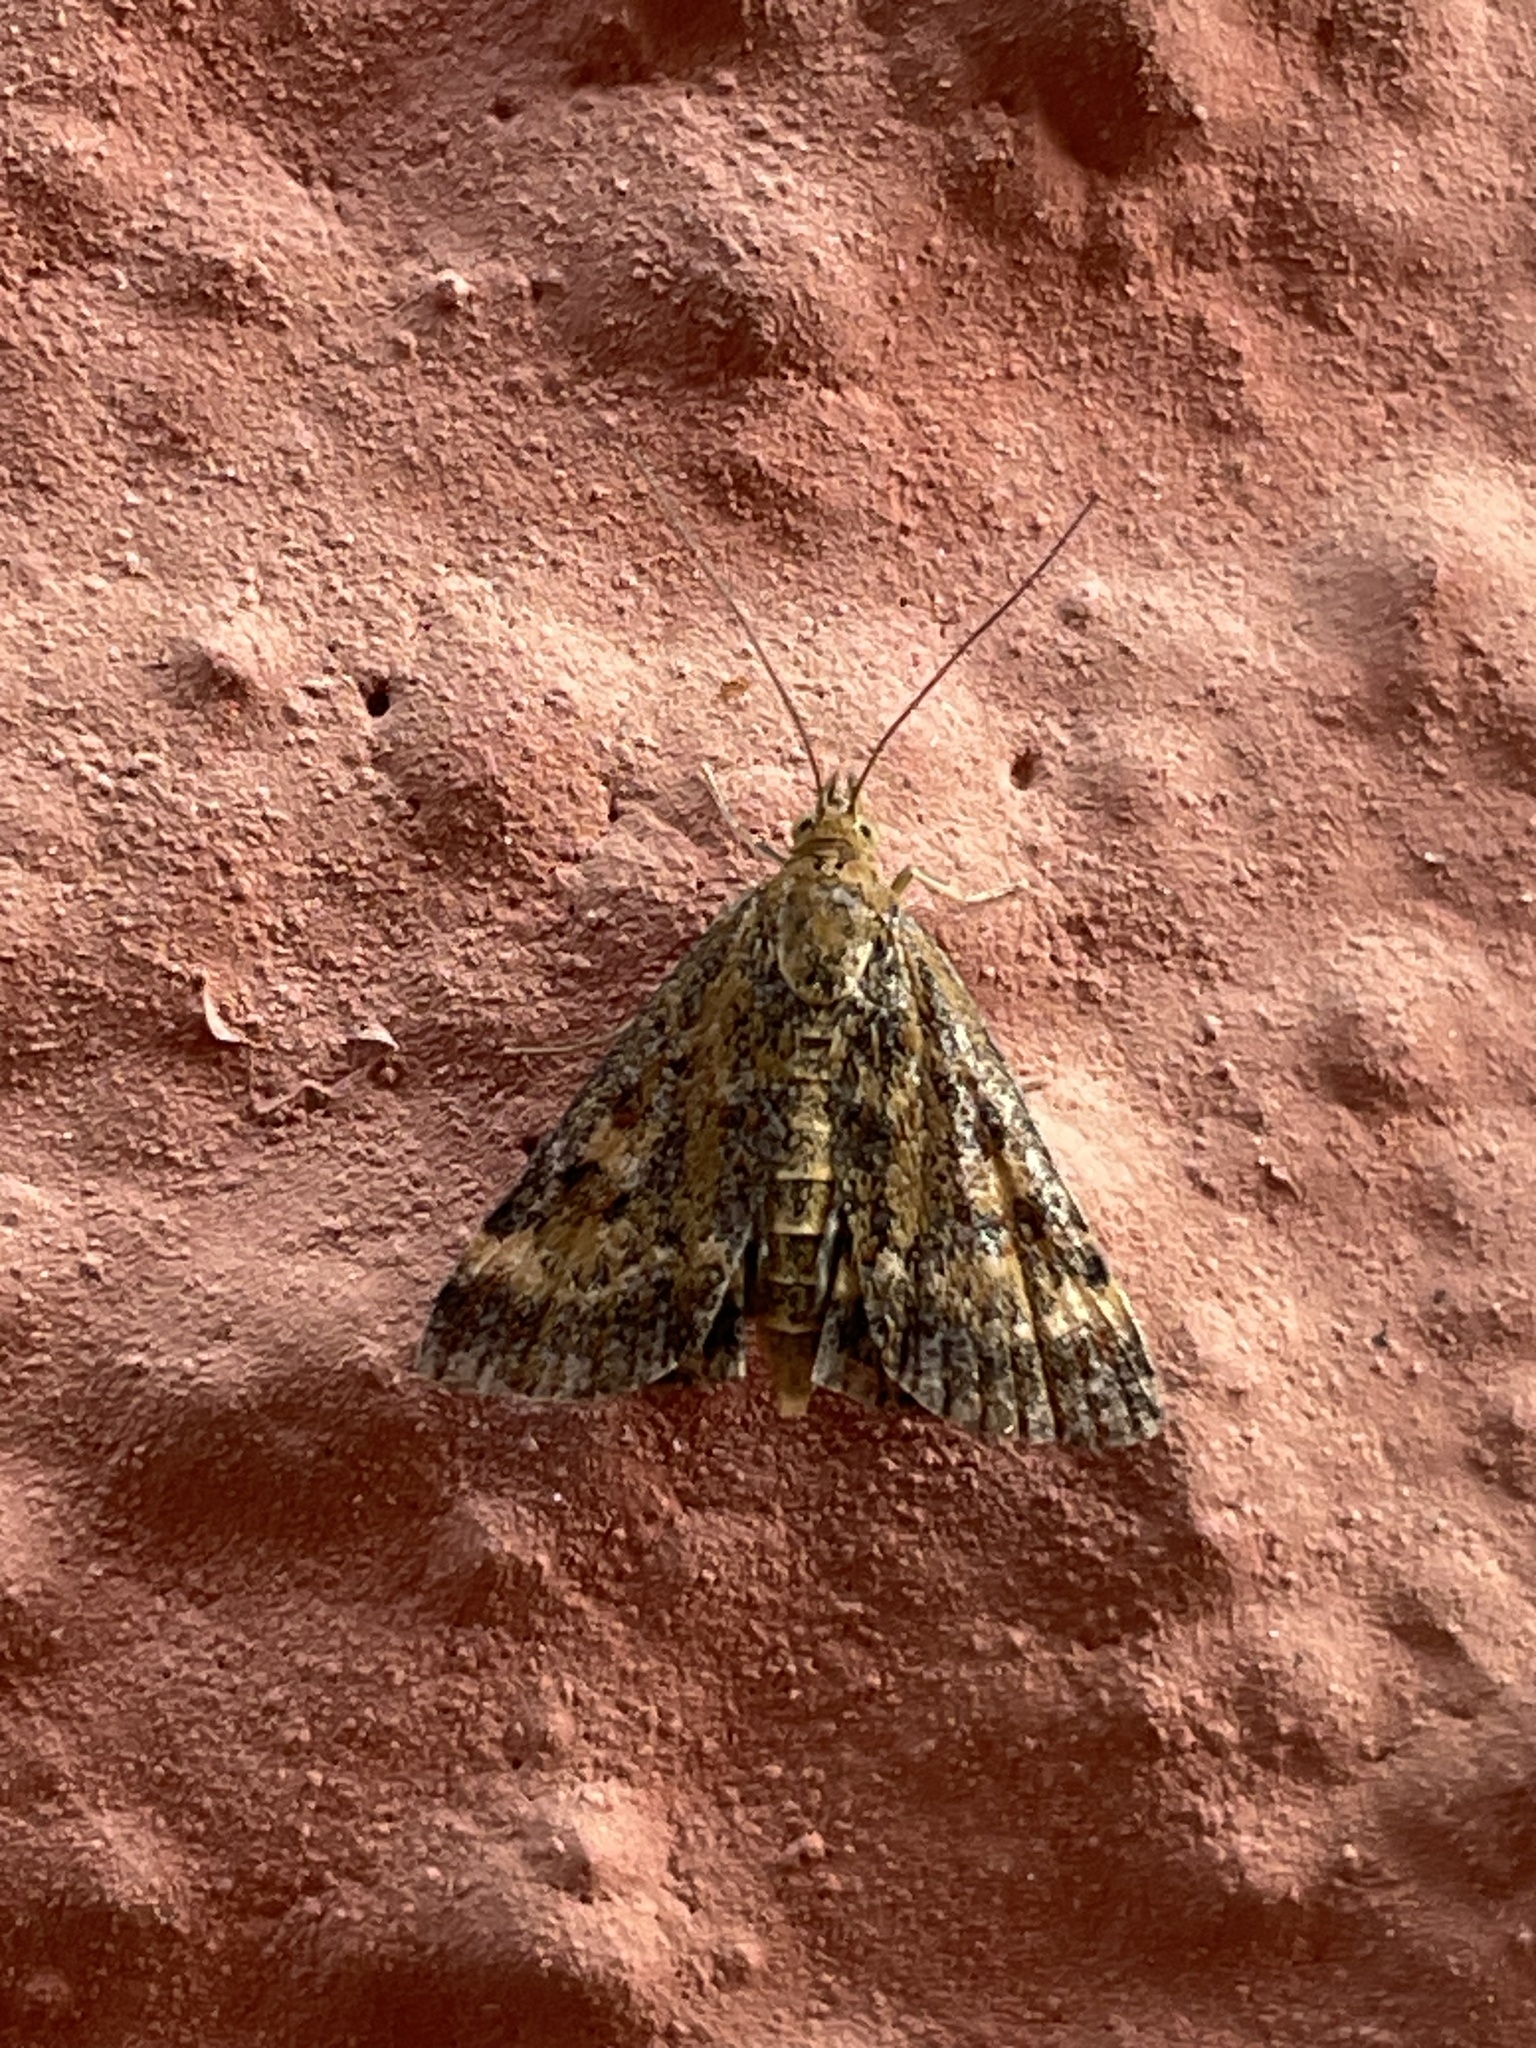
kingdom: Animalia
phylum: Arthropoda
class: Insecta
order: Lepidoptera
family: Crambidae
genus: Pyrausta
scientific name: Pyrausta despicata
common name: Straw-barred pearl
